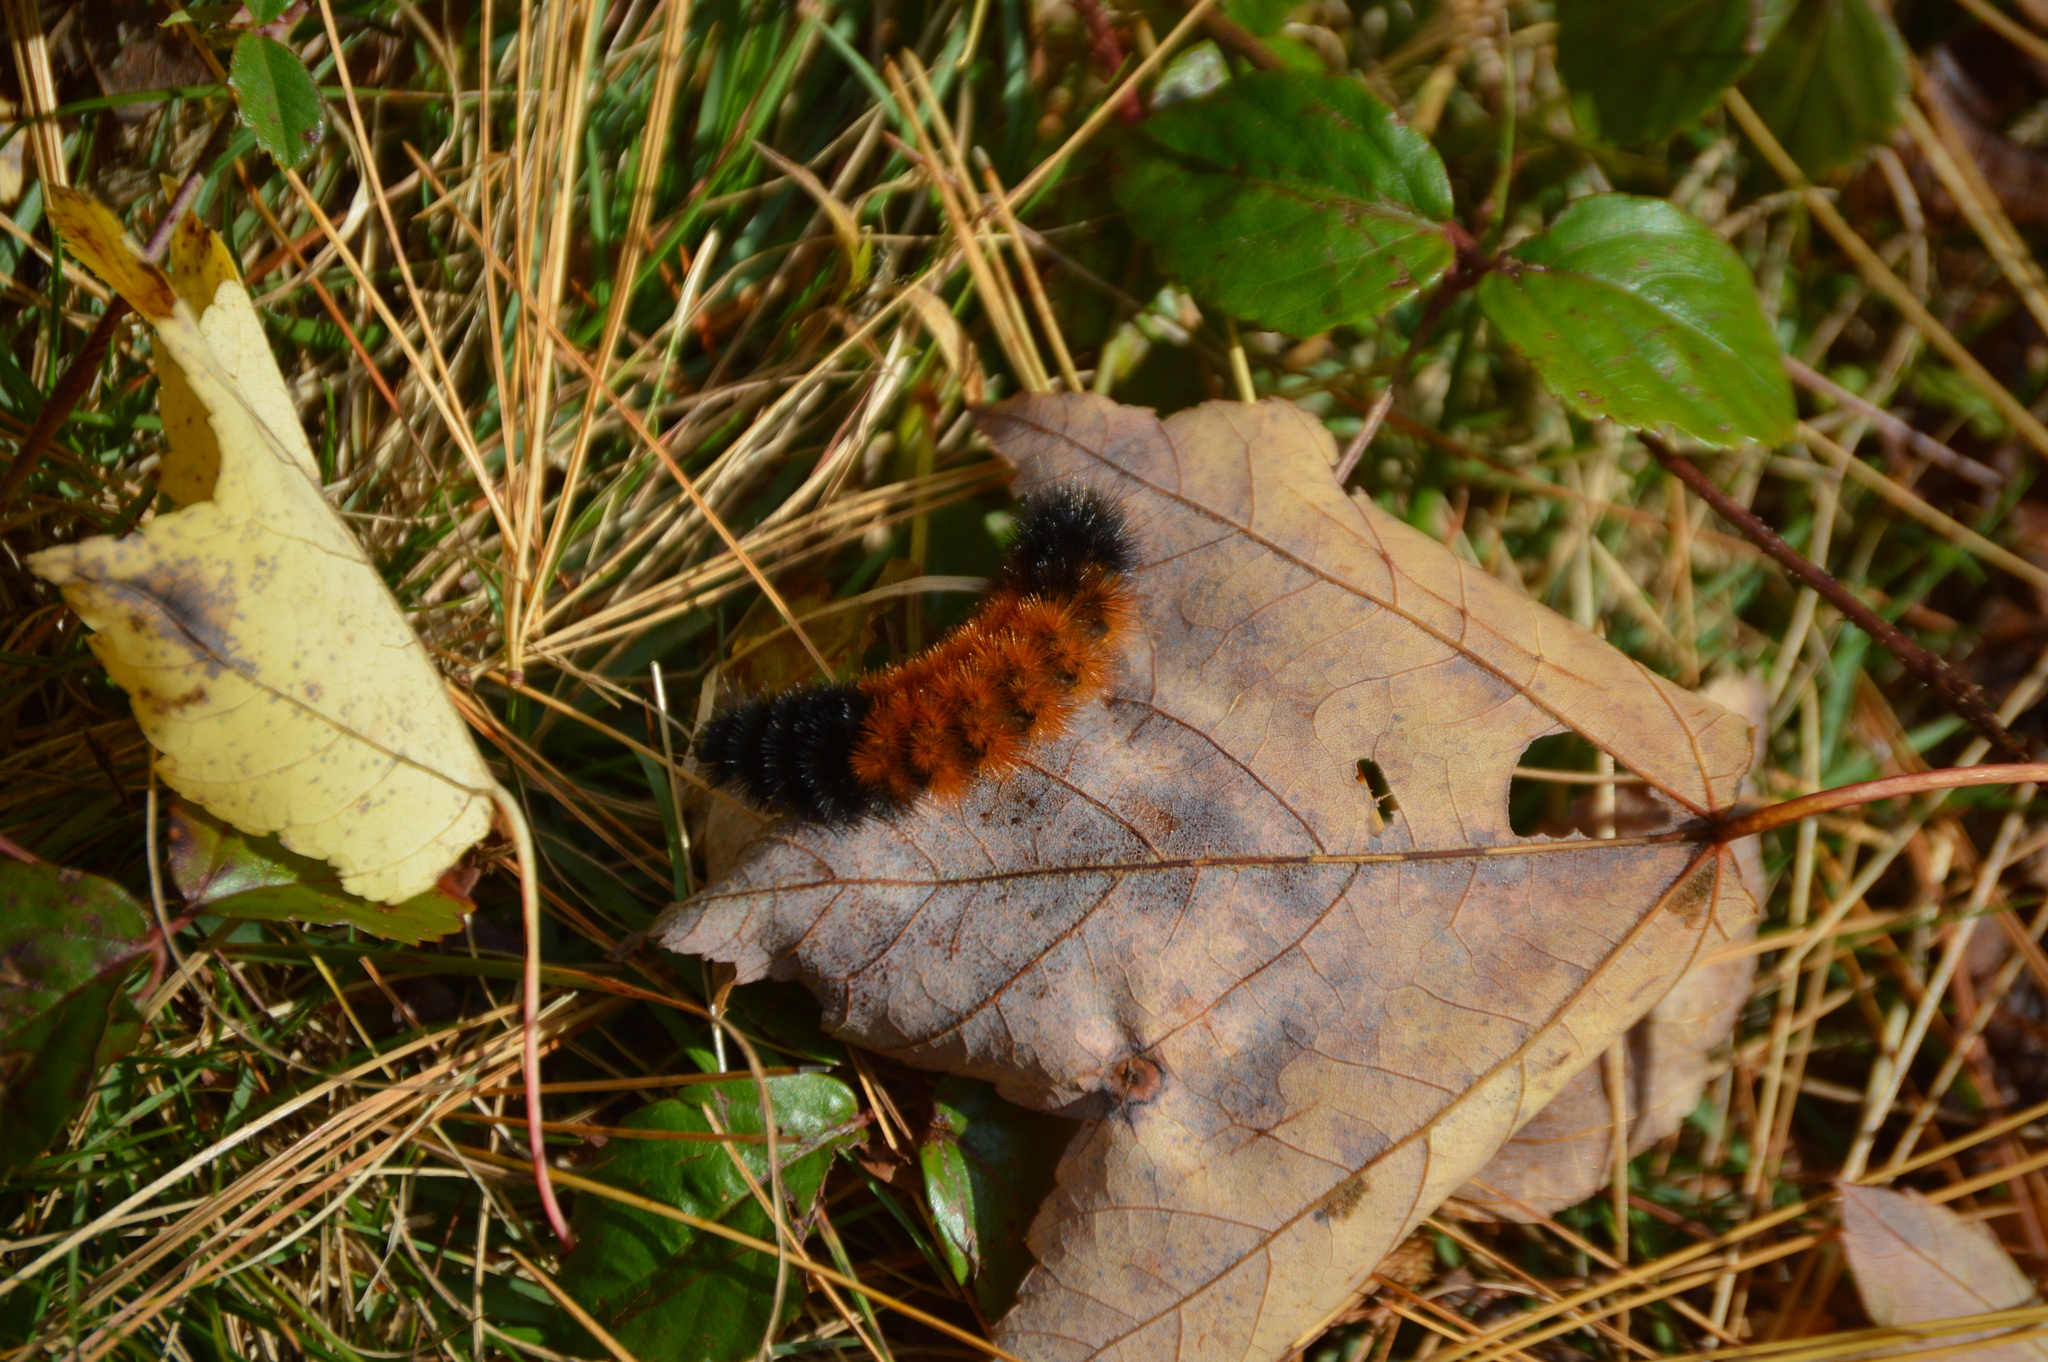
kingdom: Animalia
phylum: Arthropoda
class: Insecta
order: Lepidoptera
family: Erebidae
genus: Pyrrharctia
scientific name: Pyrrharctia isabella
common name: Isabella tiger moth
